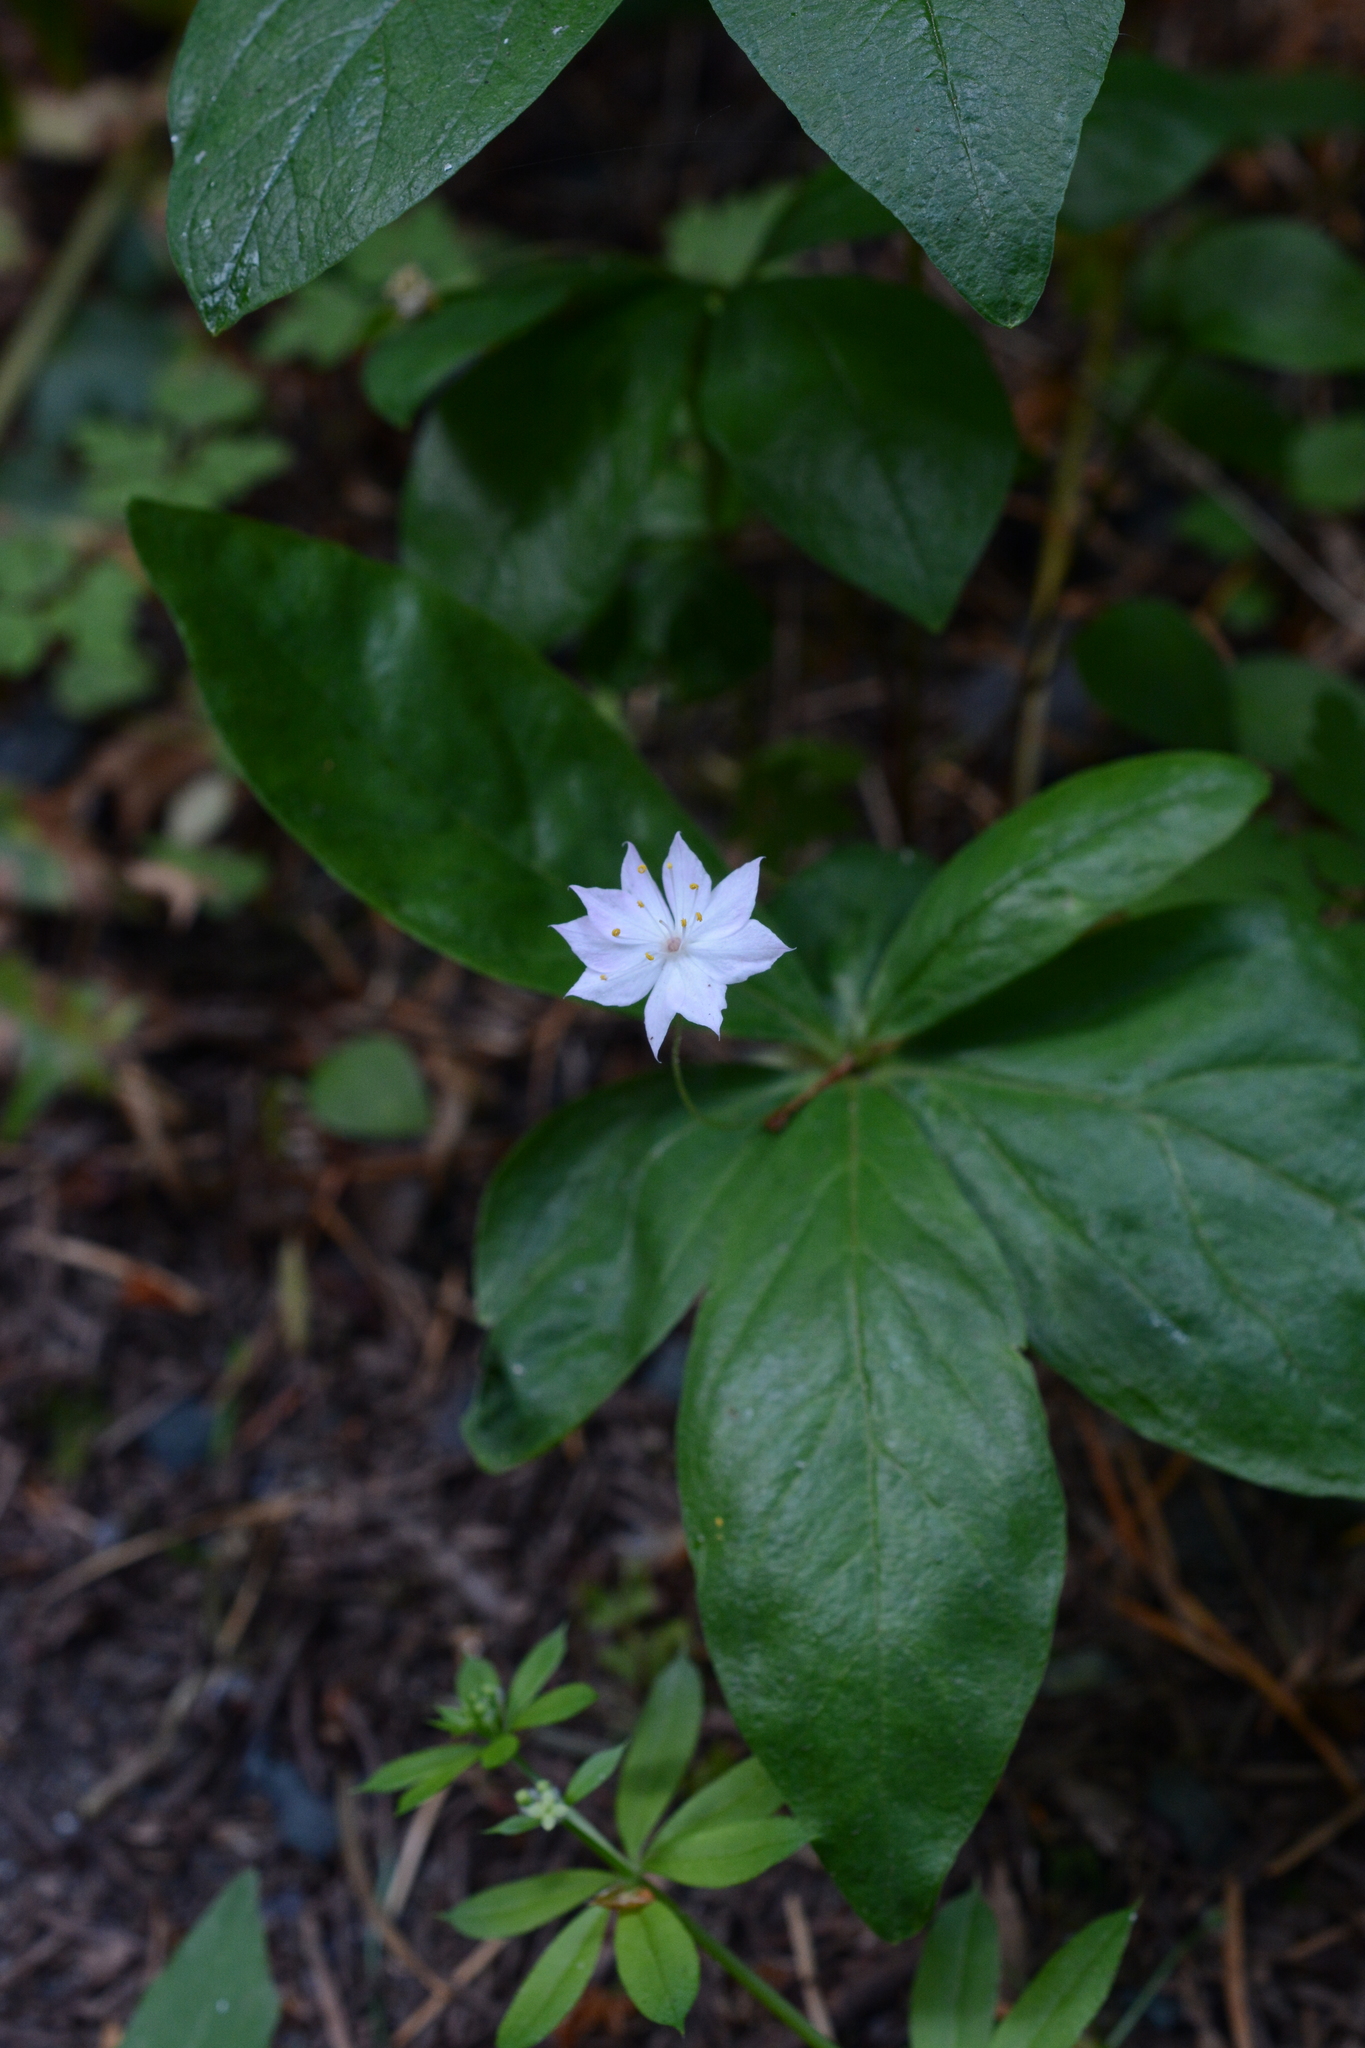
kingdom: Plantae
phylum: Tracheophyta
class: Magnoliopsida
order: Ericales
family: Primulaceae
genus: Lysimachia
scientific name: Lysimachia latifolia
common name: Pacific starflower
